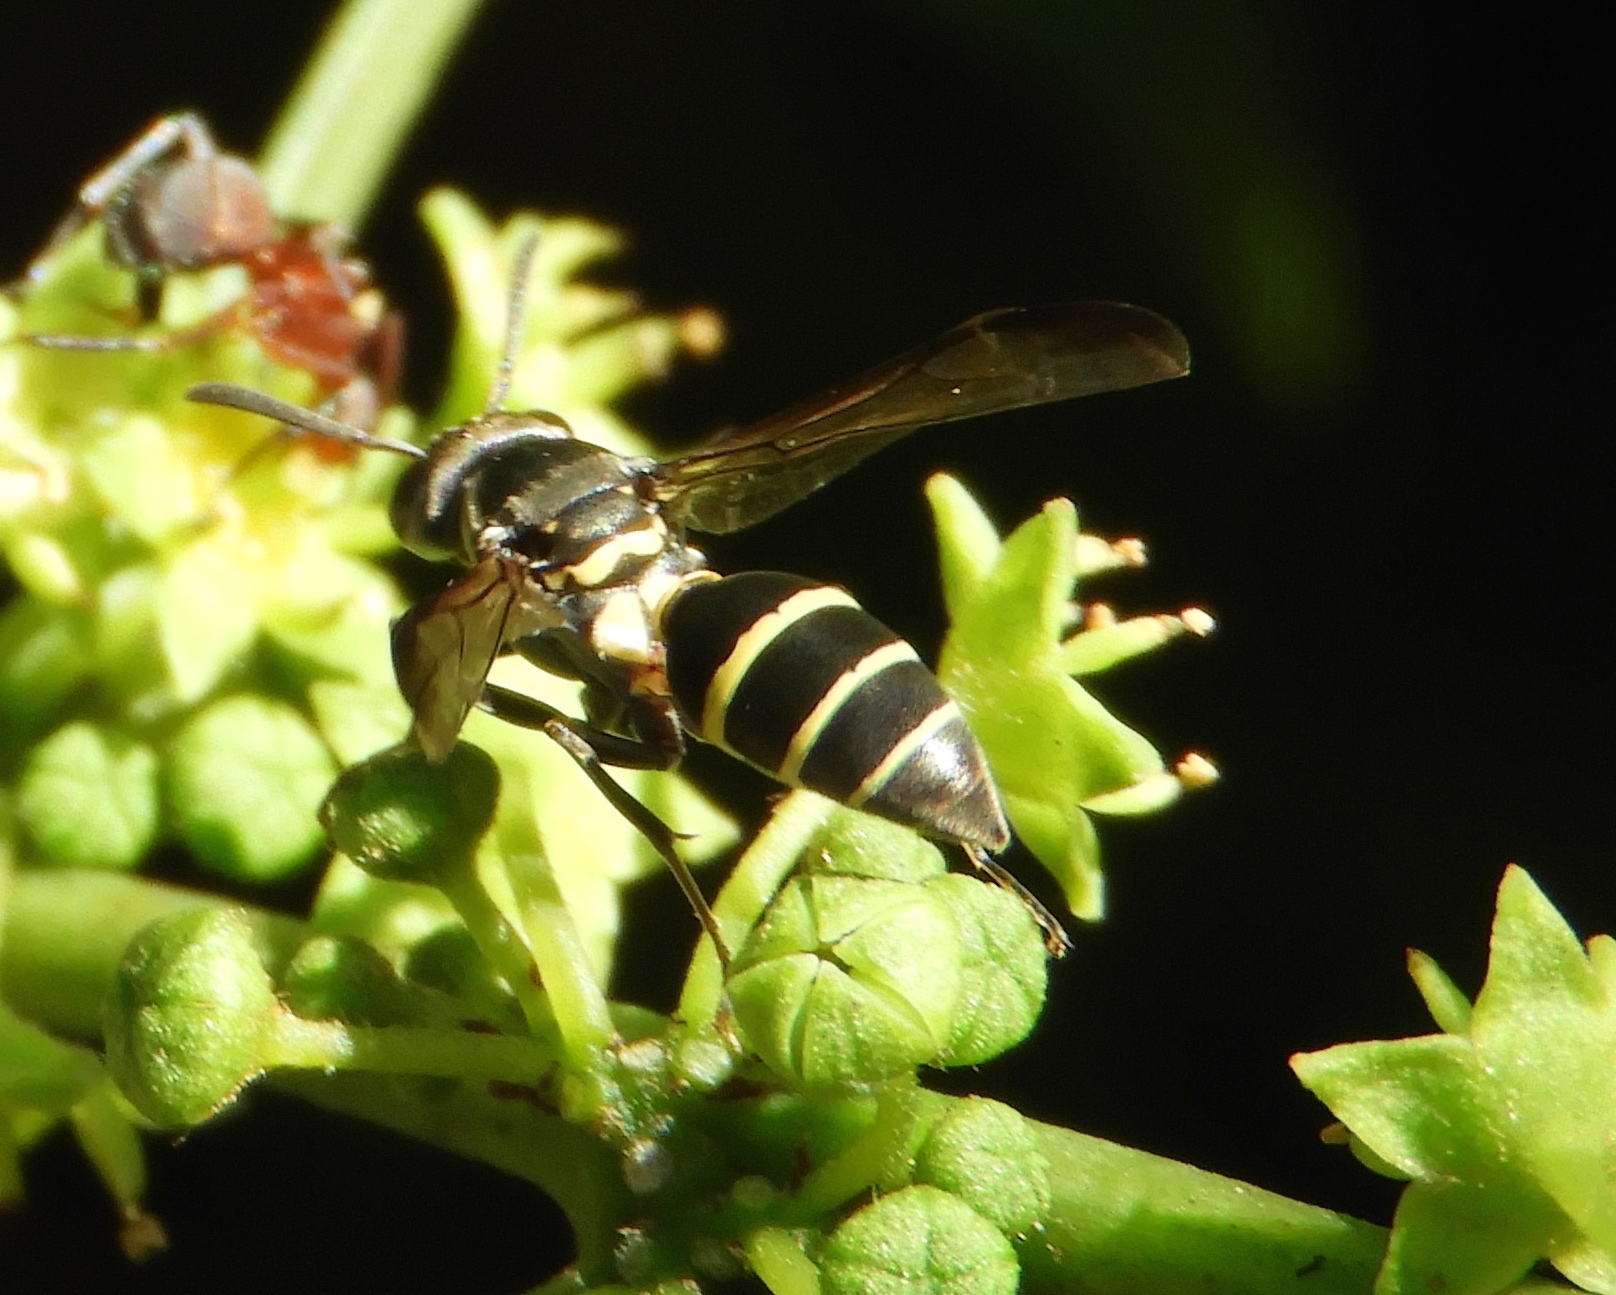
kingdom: Animalia
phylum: Arthropoda
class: Insecta
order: Hymenoptera
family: Vespidae
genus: Myrapetra
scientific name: Myrapetra
